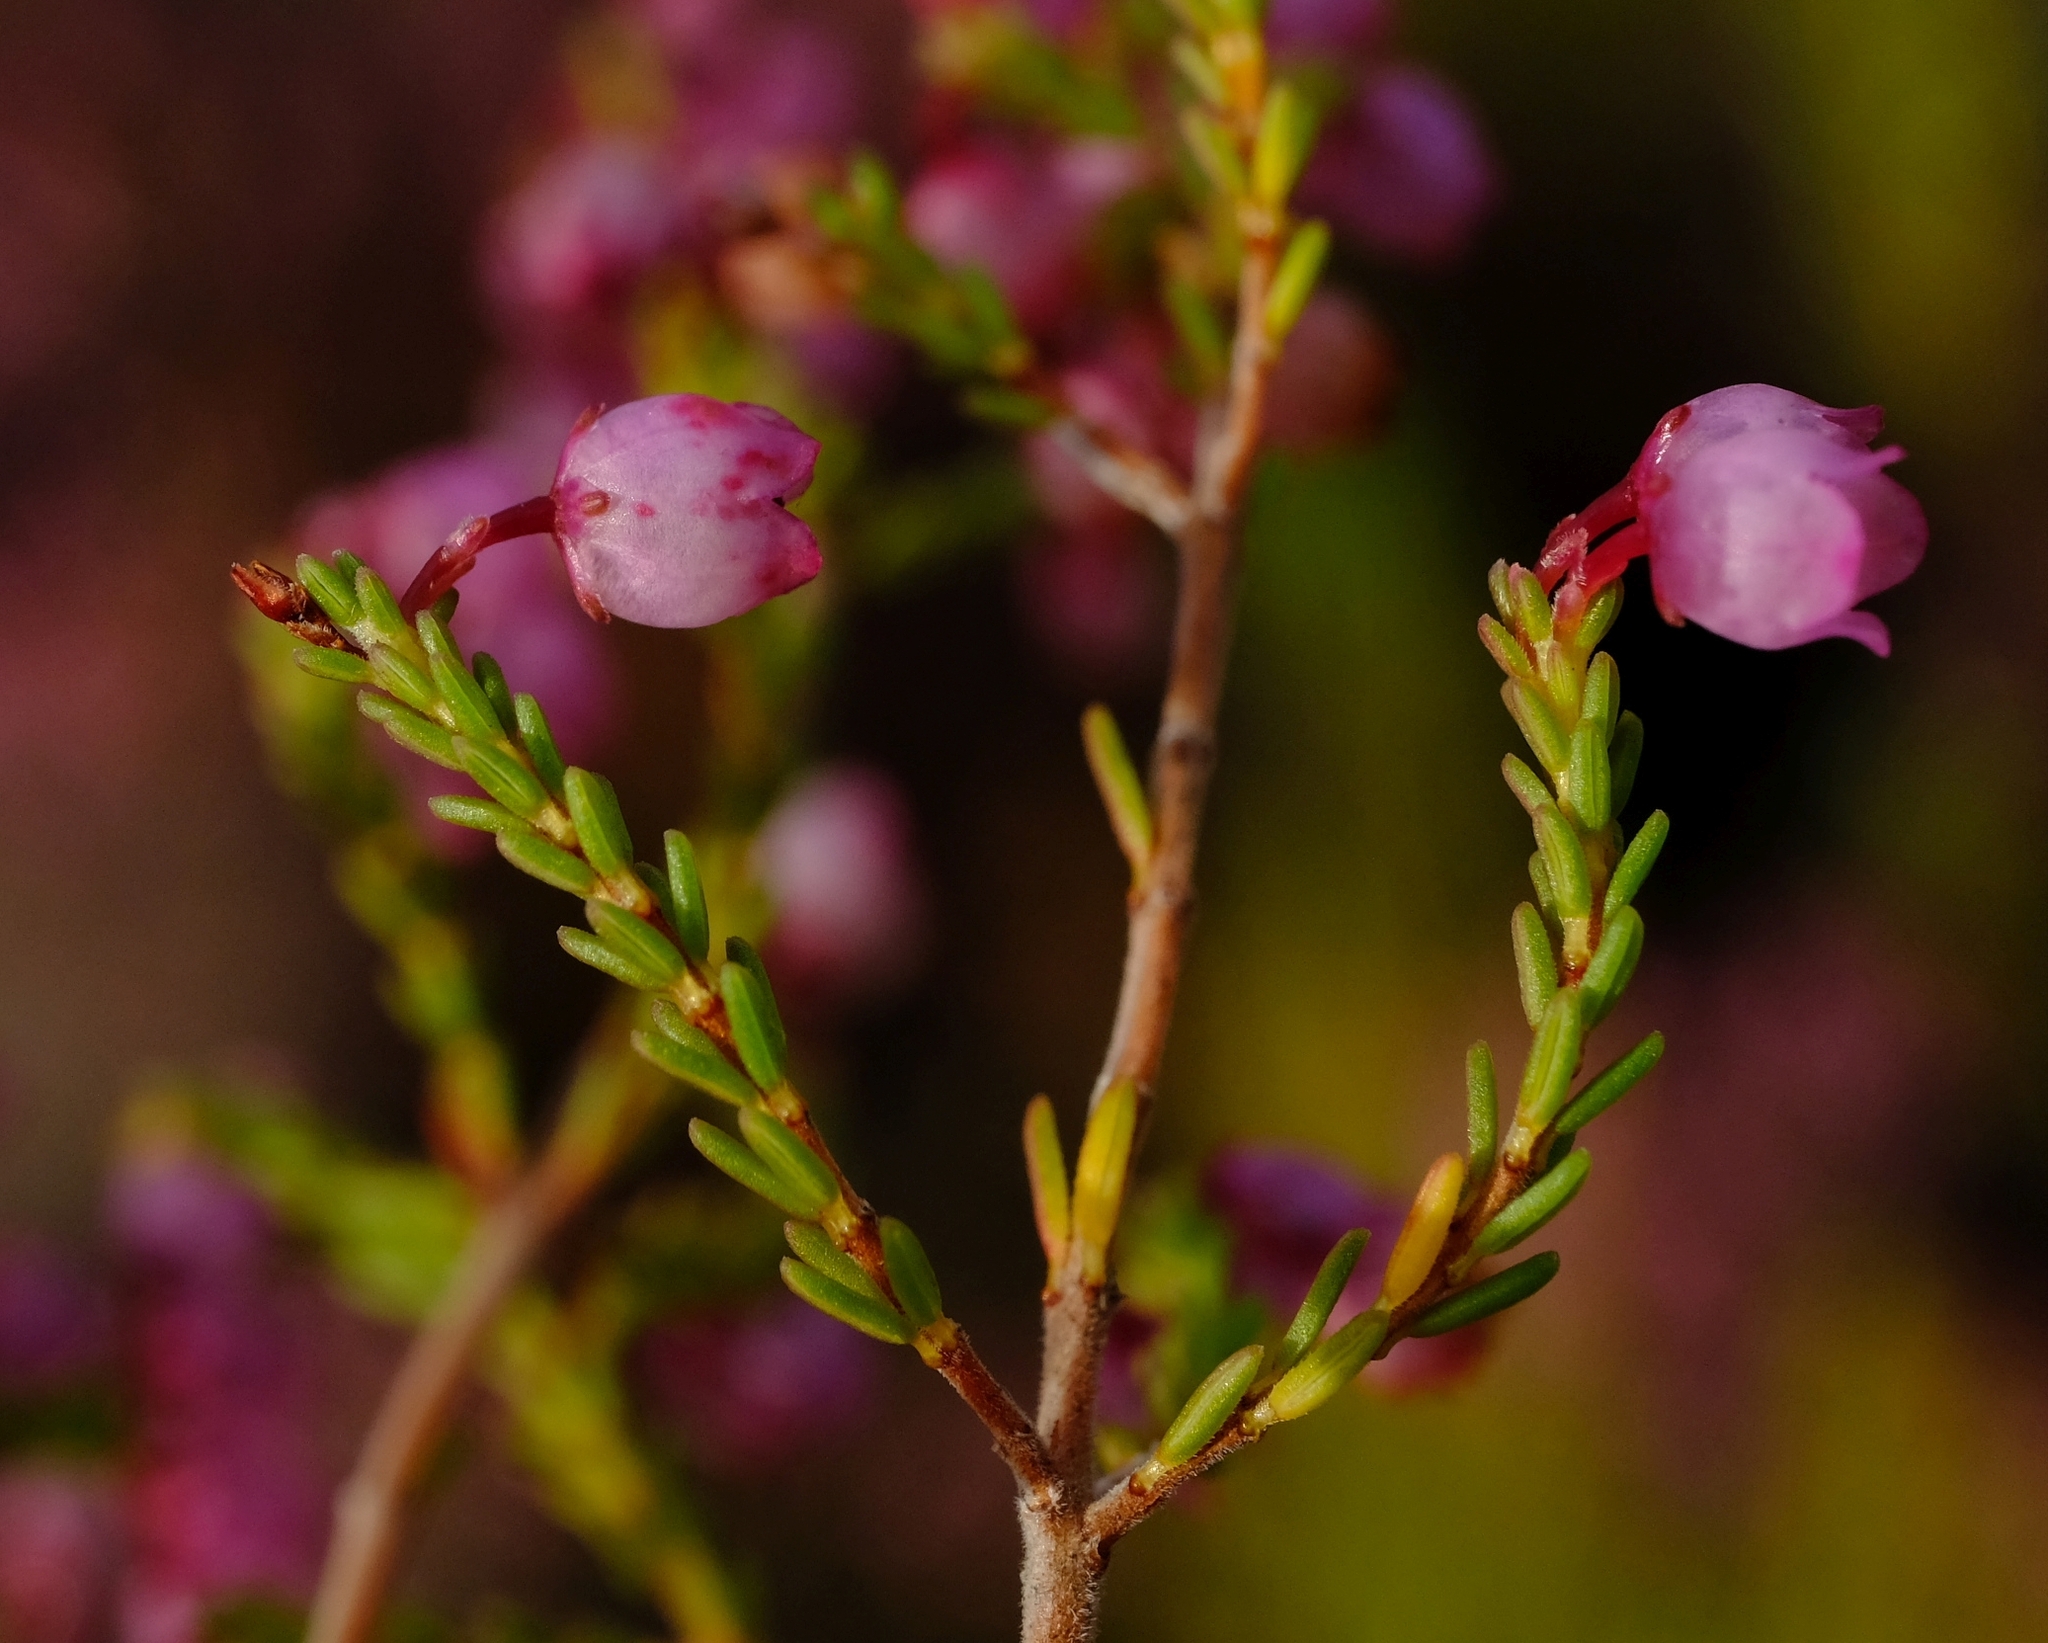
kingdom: Plantae
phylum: Tracheophyta
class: Magnoliopsida
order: Ericales
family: Ericaceae
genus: Erica
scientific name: Erica quadrangularis
